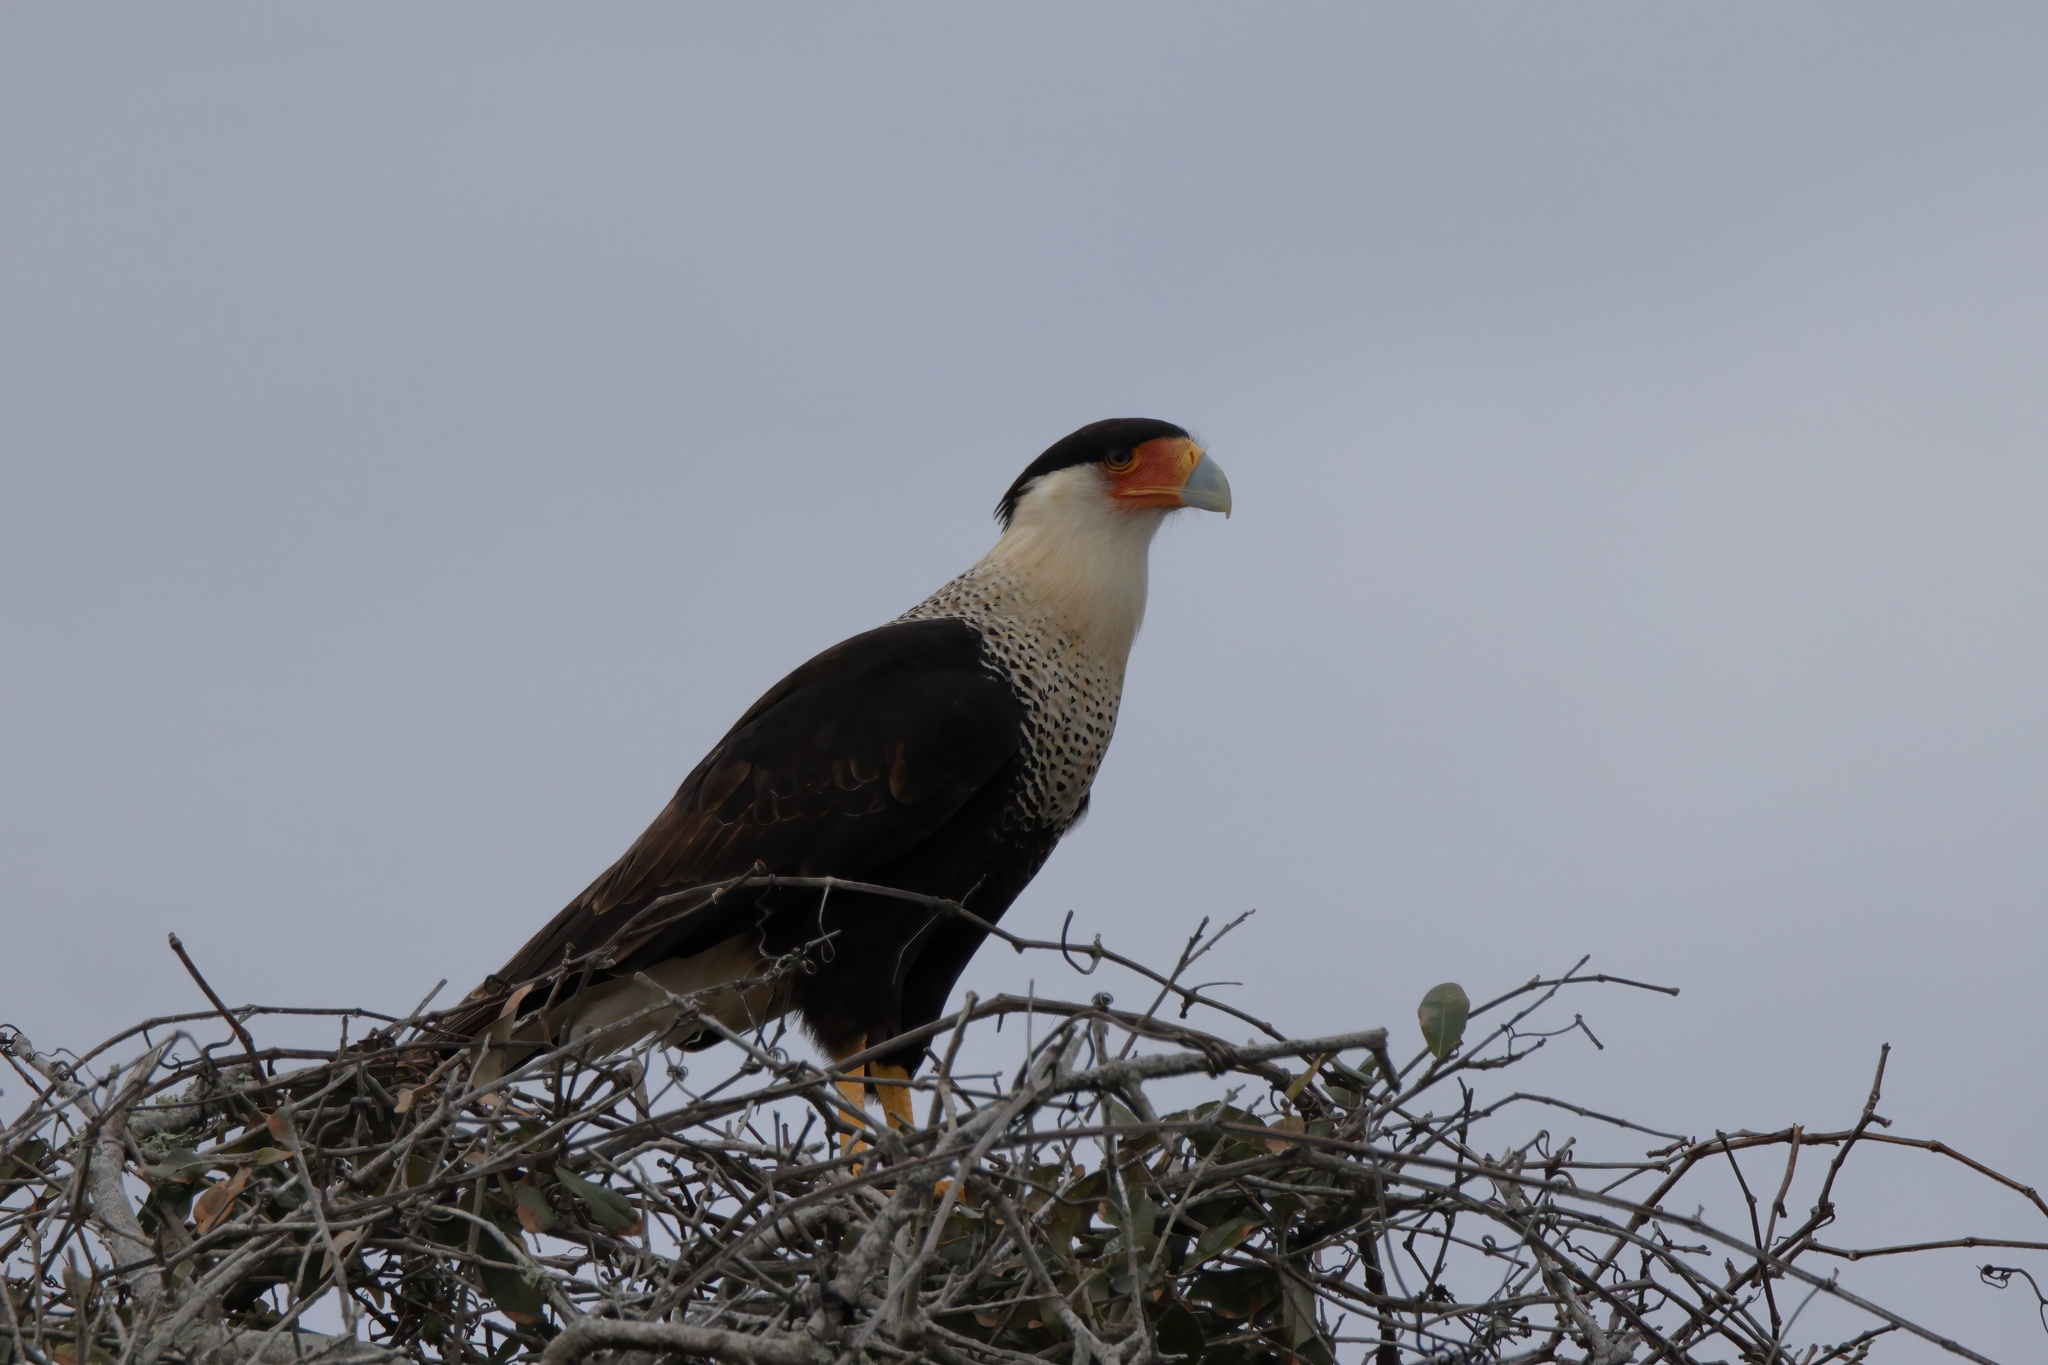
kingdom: Animalia
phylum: Chordata
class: Aves
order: Falconiformes
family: Falconidae
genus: Caracara
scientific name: Caracara plancus
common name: Southern caracara
